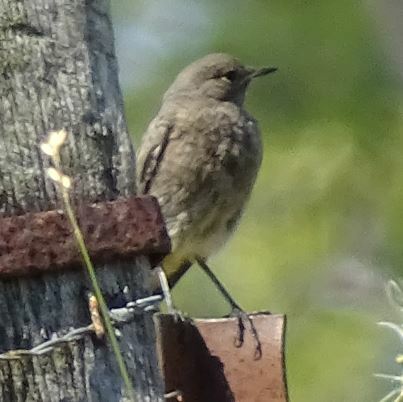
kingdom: Animalia
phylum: Chordata
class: Aves
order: Passeriformes
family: Muscicapidae
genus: Phoenicurus
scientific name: Phoenicurus ochruros
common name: Black redstart
